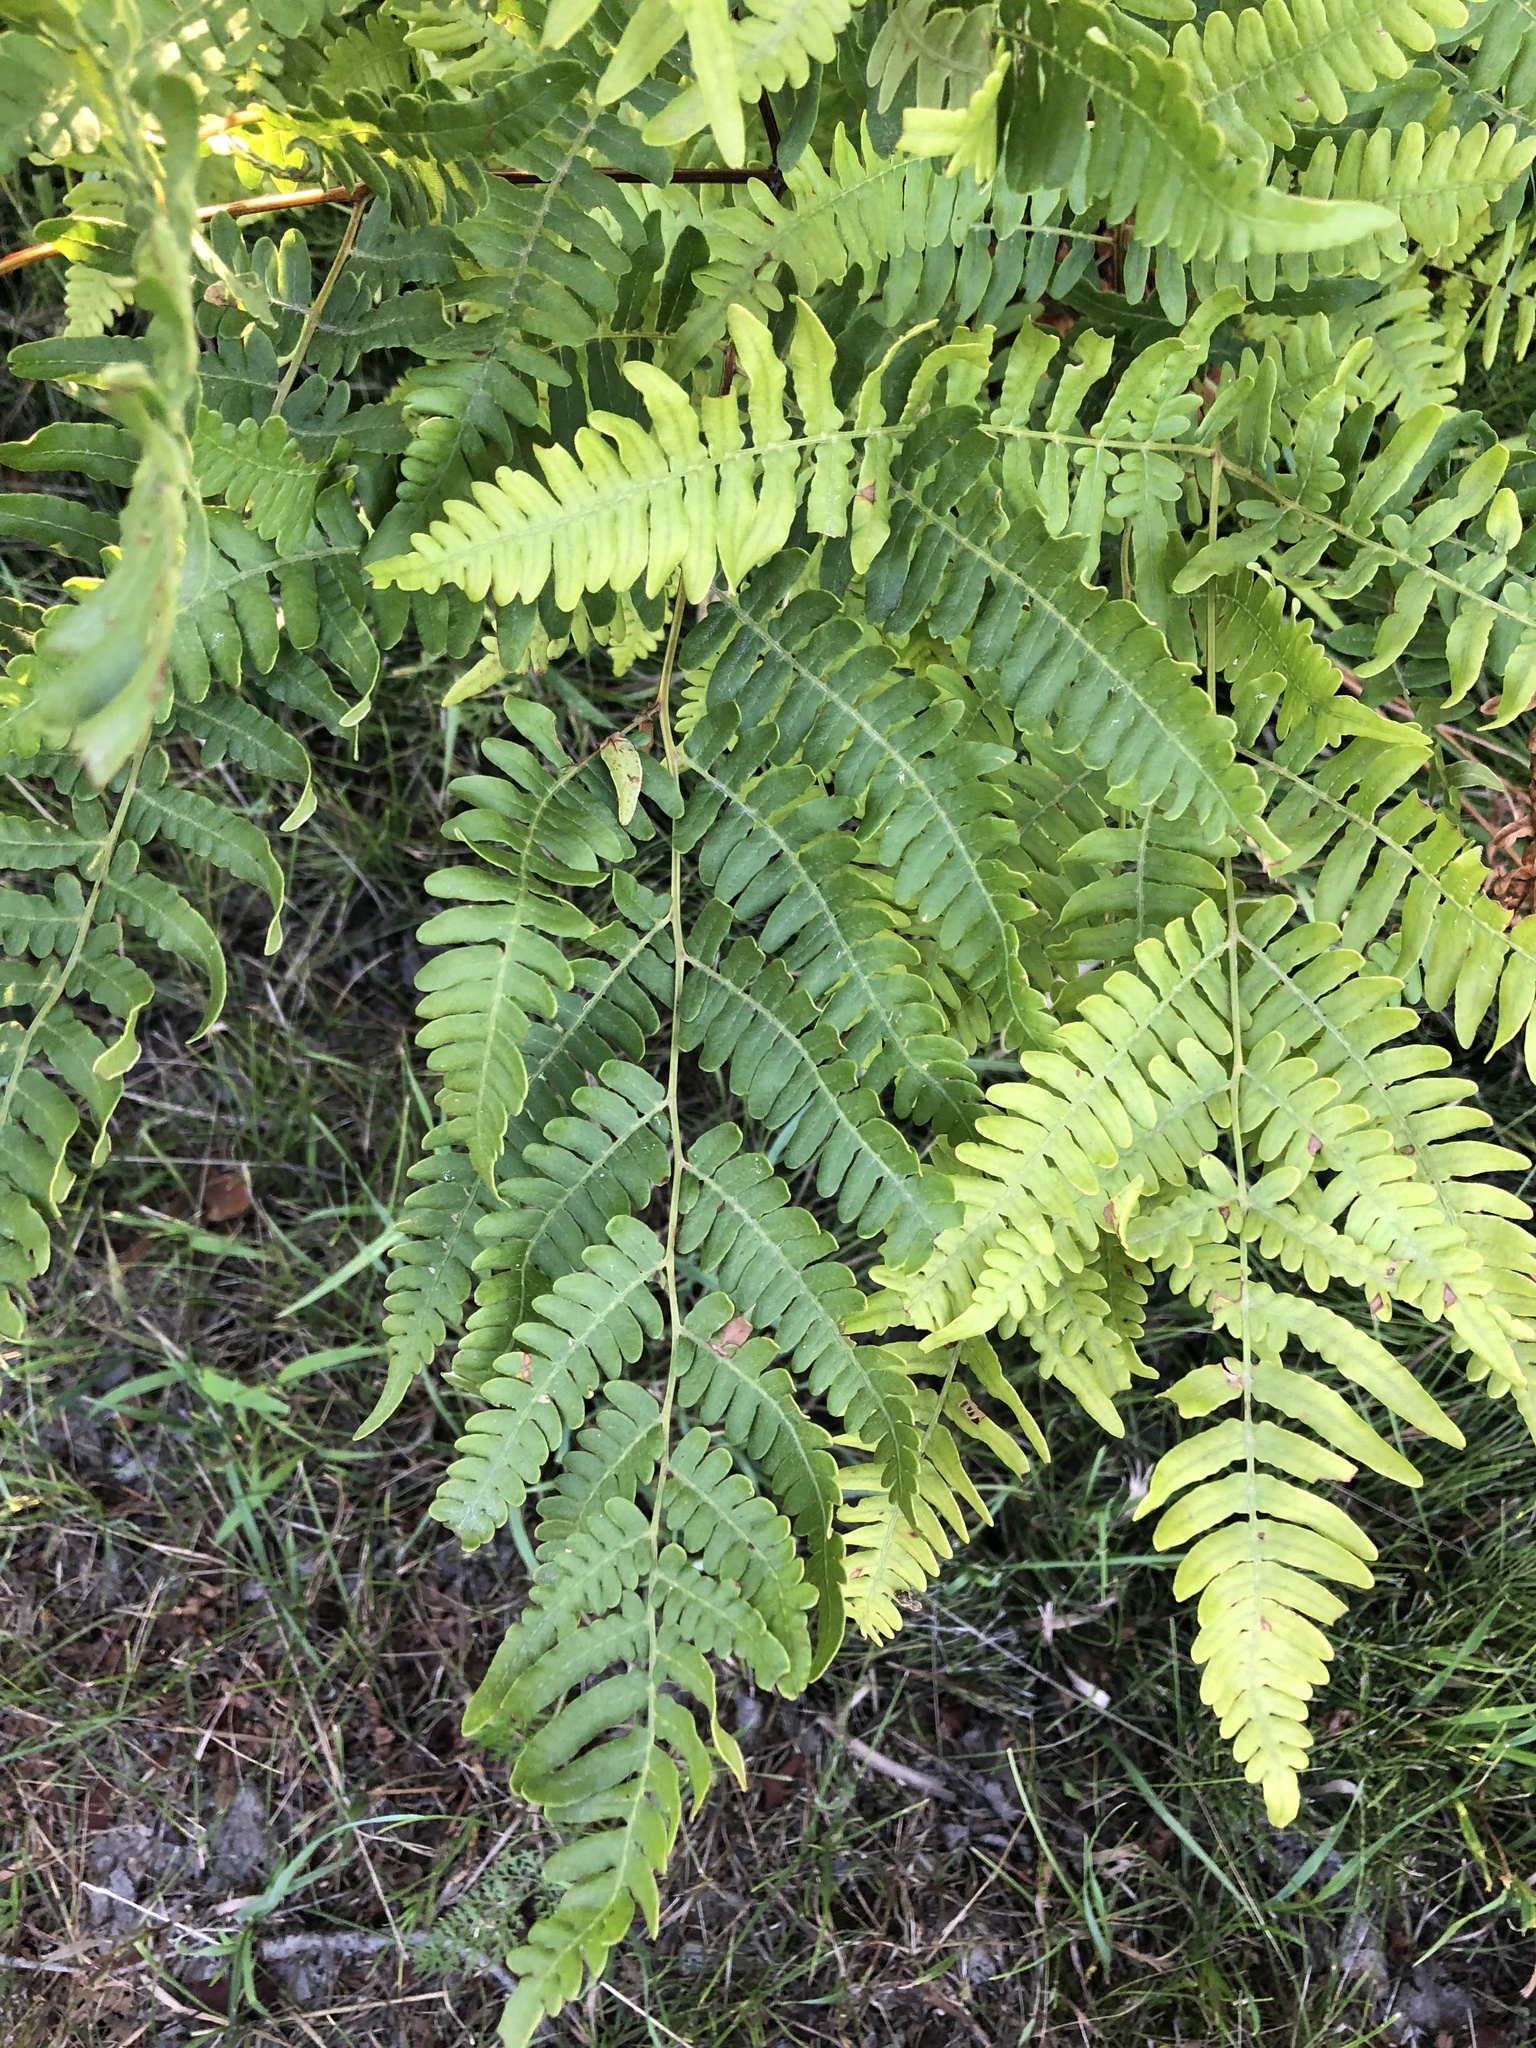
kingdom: Plantae
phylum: Tracheophyta
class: Polypodiopsida
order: Polypodiales
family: Dennstaedtiaceae
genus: Pteridium
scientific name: Pteridium aquilinum
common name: Bracken
